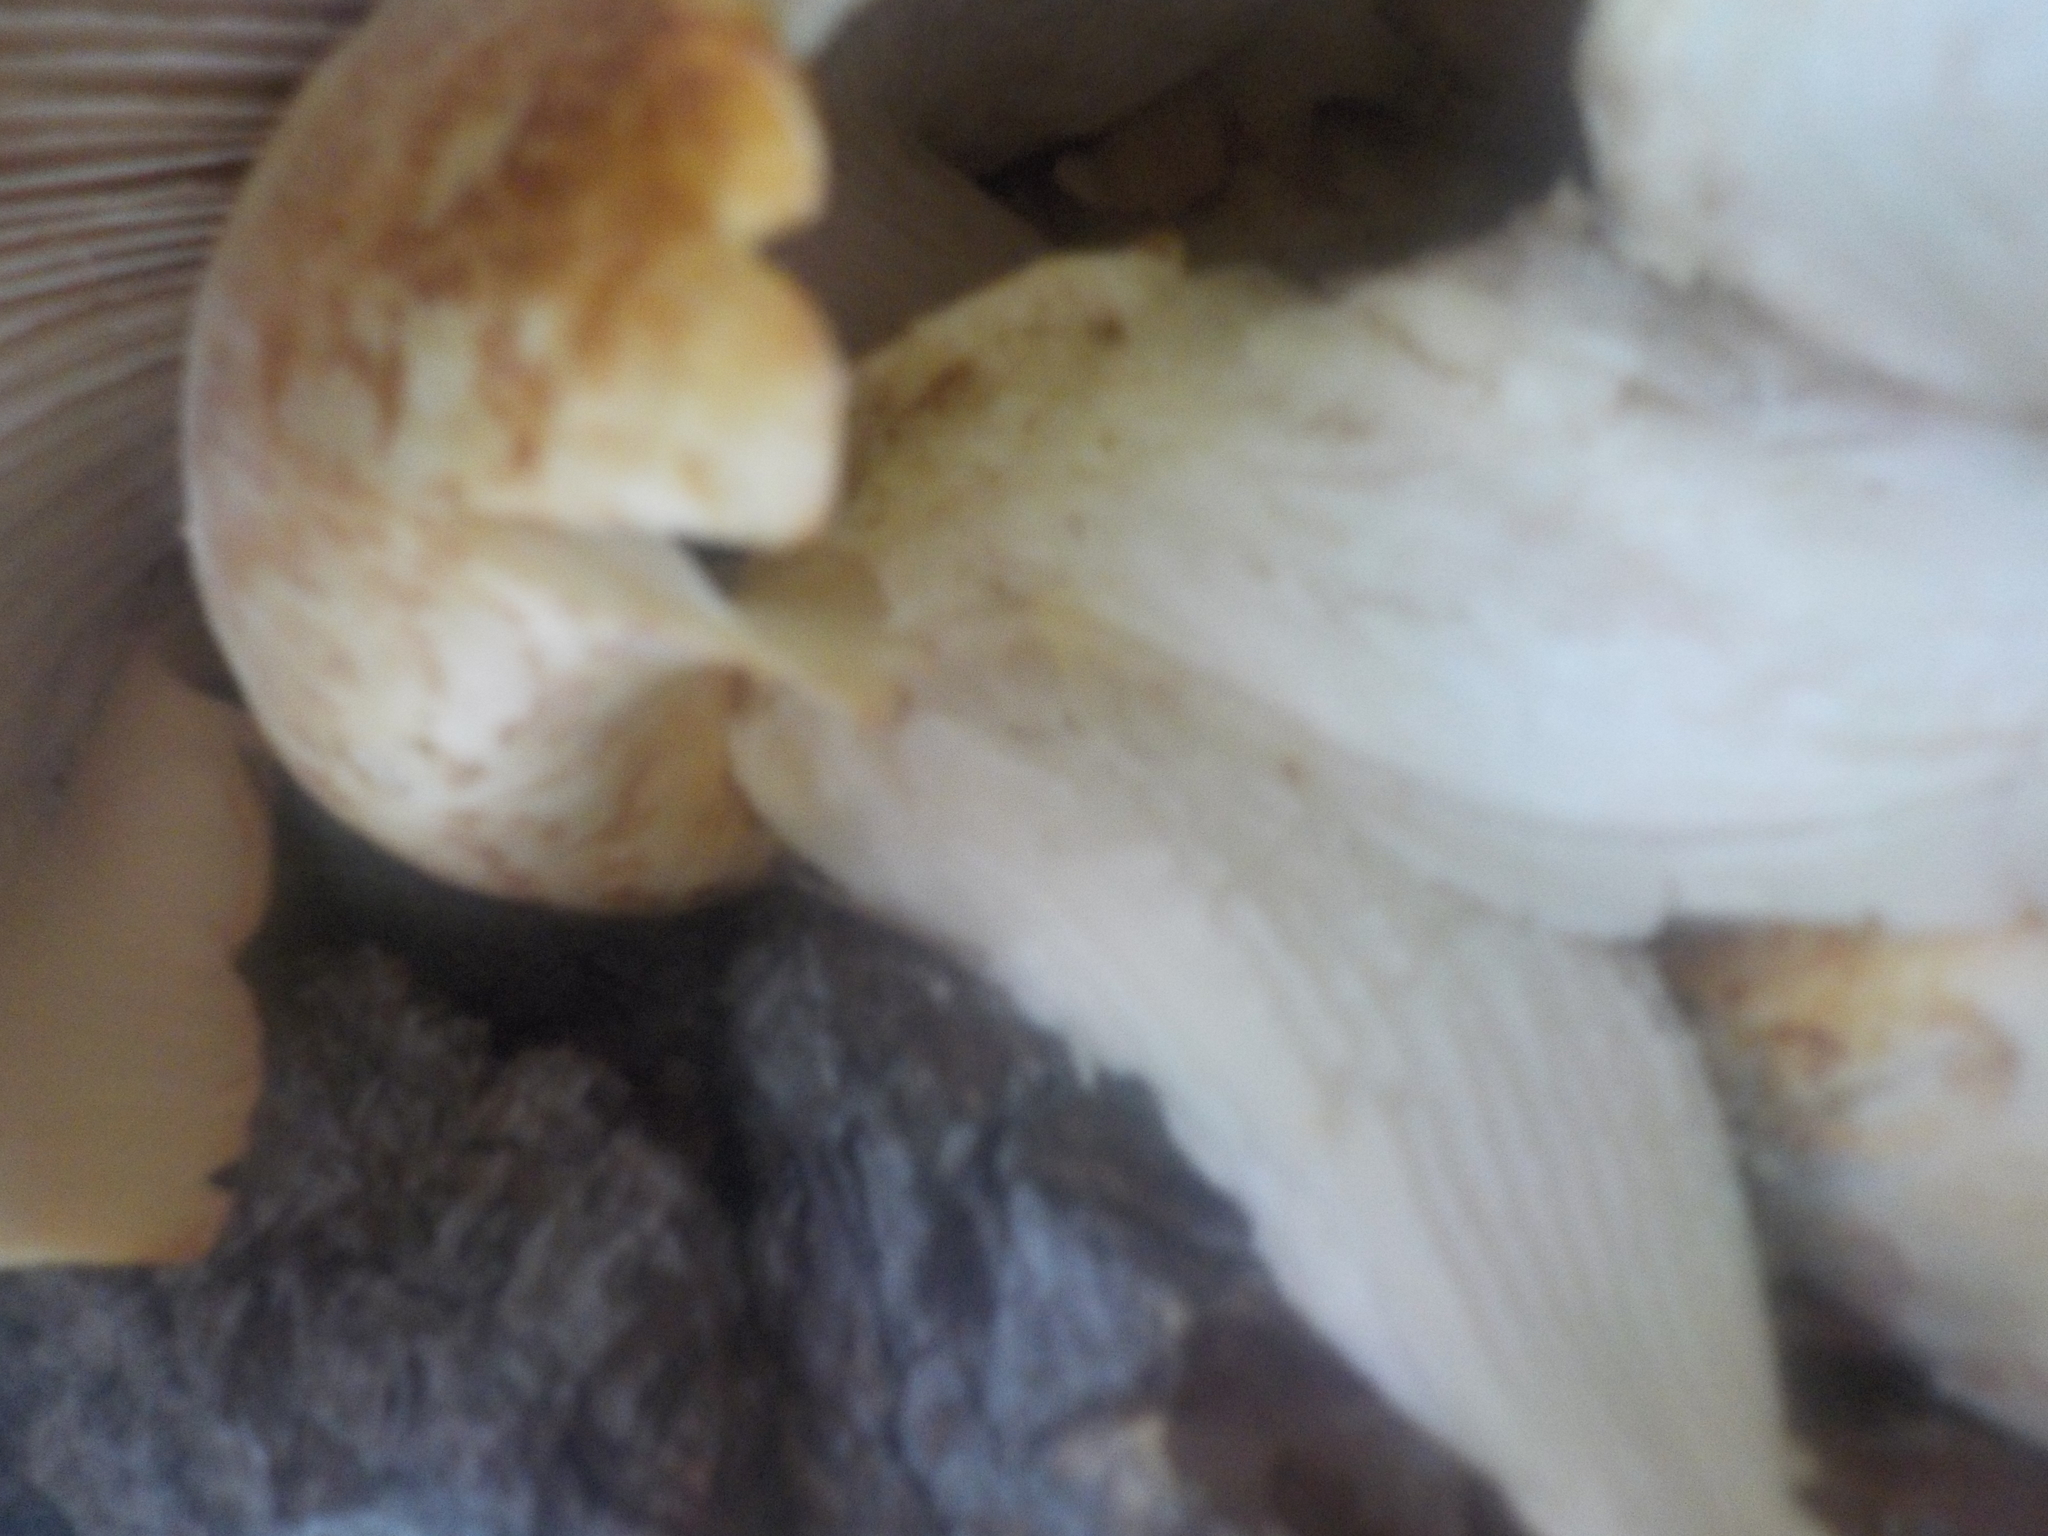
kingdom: Fungi
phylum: Basidiomycota
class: Agaricomycetes
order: Gloeophyllales
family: Gloeophyllaceae
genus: Neolentinus
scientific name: Neolentinus lepideus
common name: Scaly sawgill
